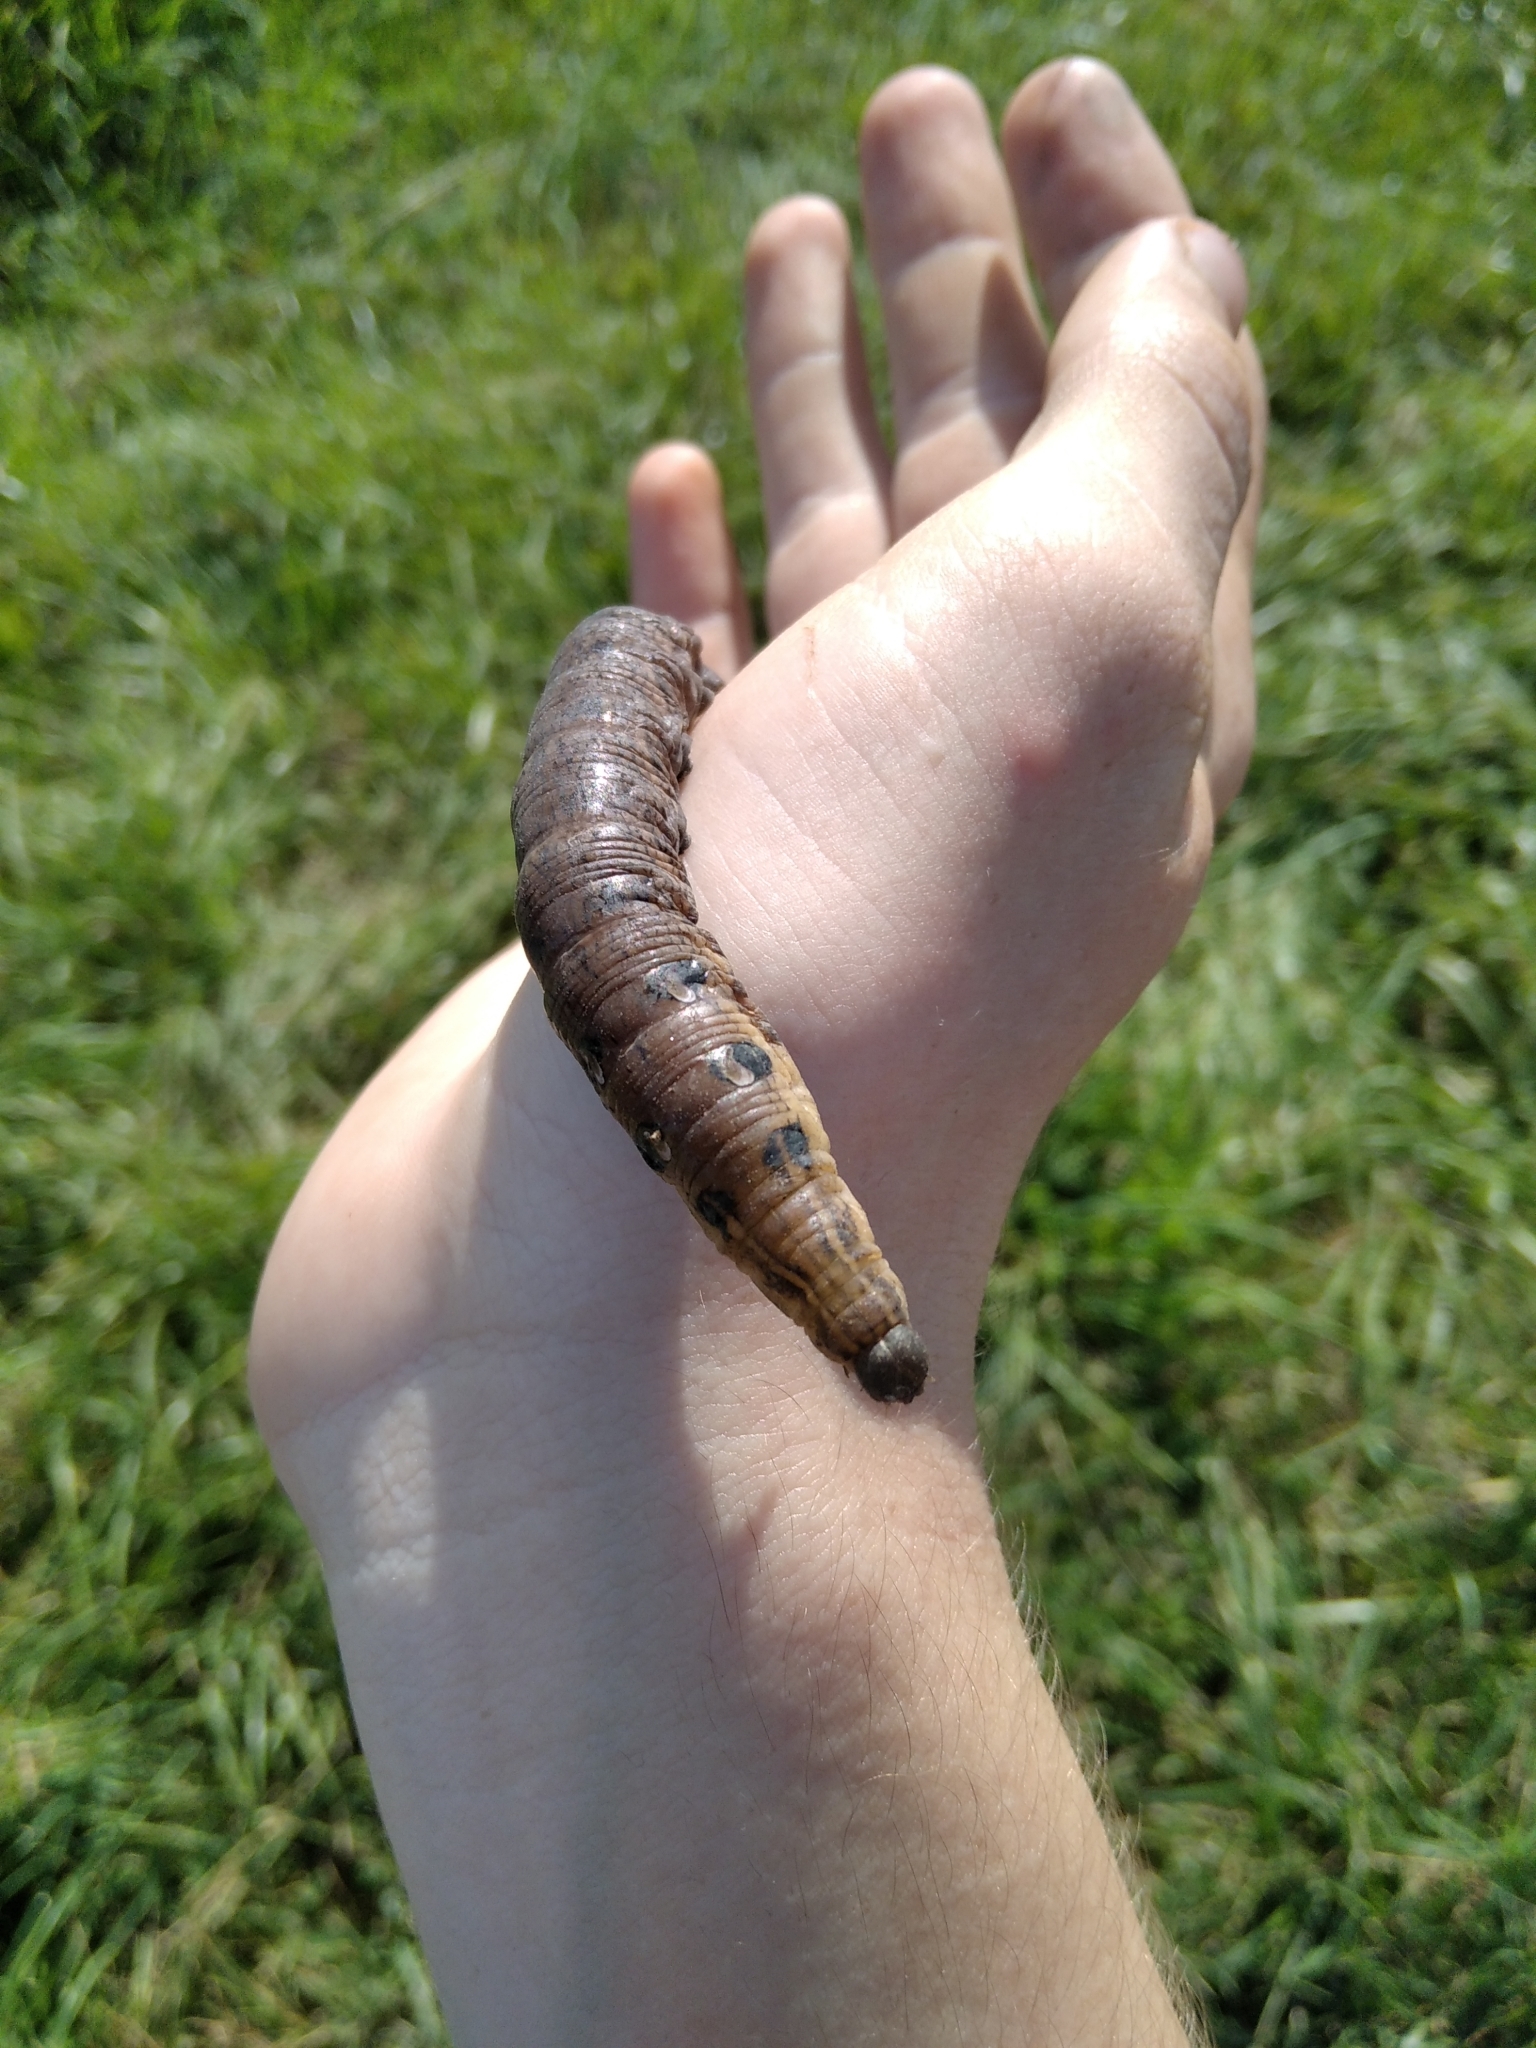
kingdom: Animalia
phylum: Arthropoda
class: Insecta
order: Lepidoptera
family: Sphingidae
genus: Deilephila
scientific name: Deilephila elpenor
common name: Elephant hawk-moth
